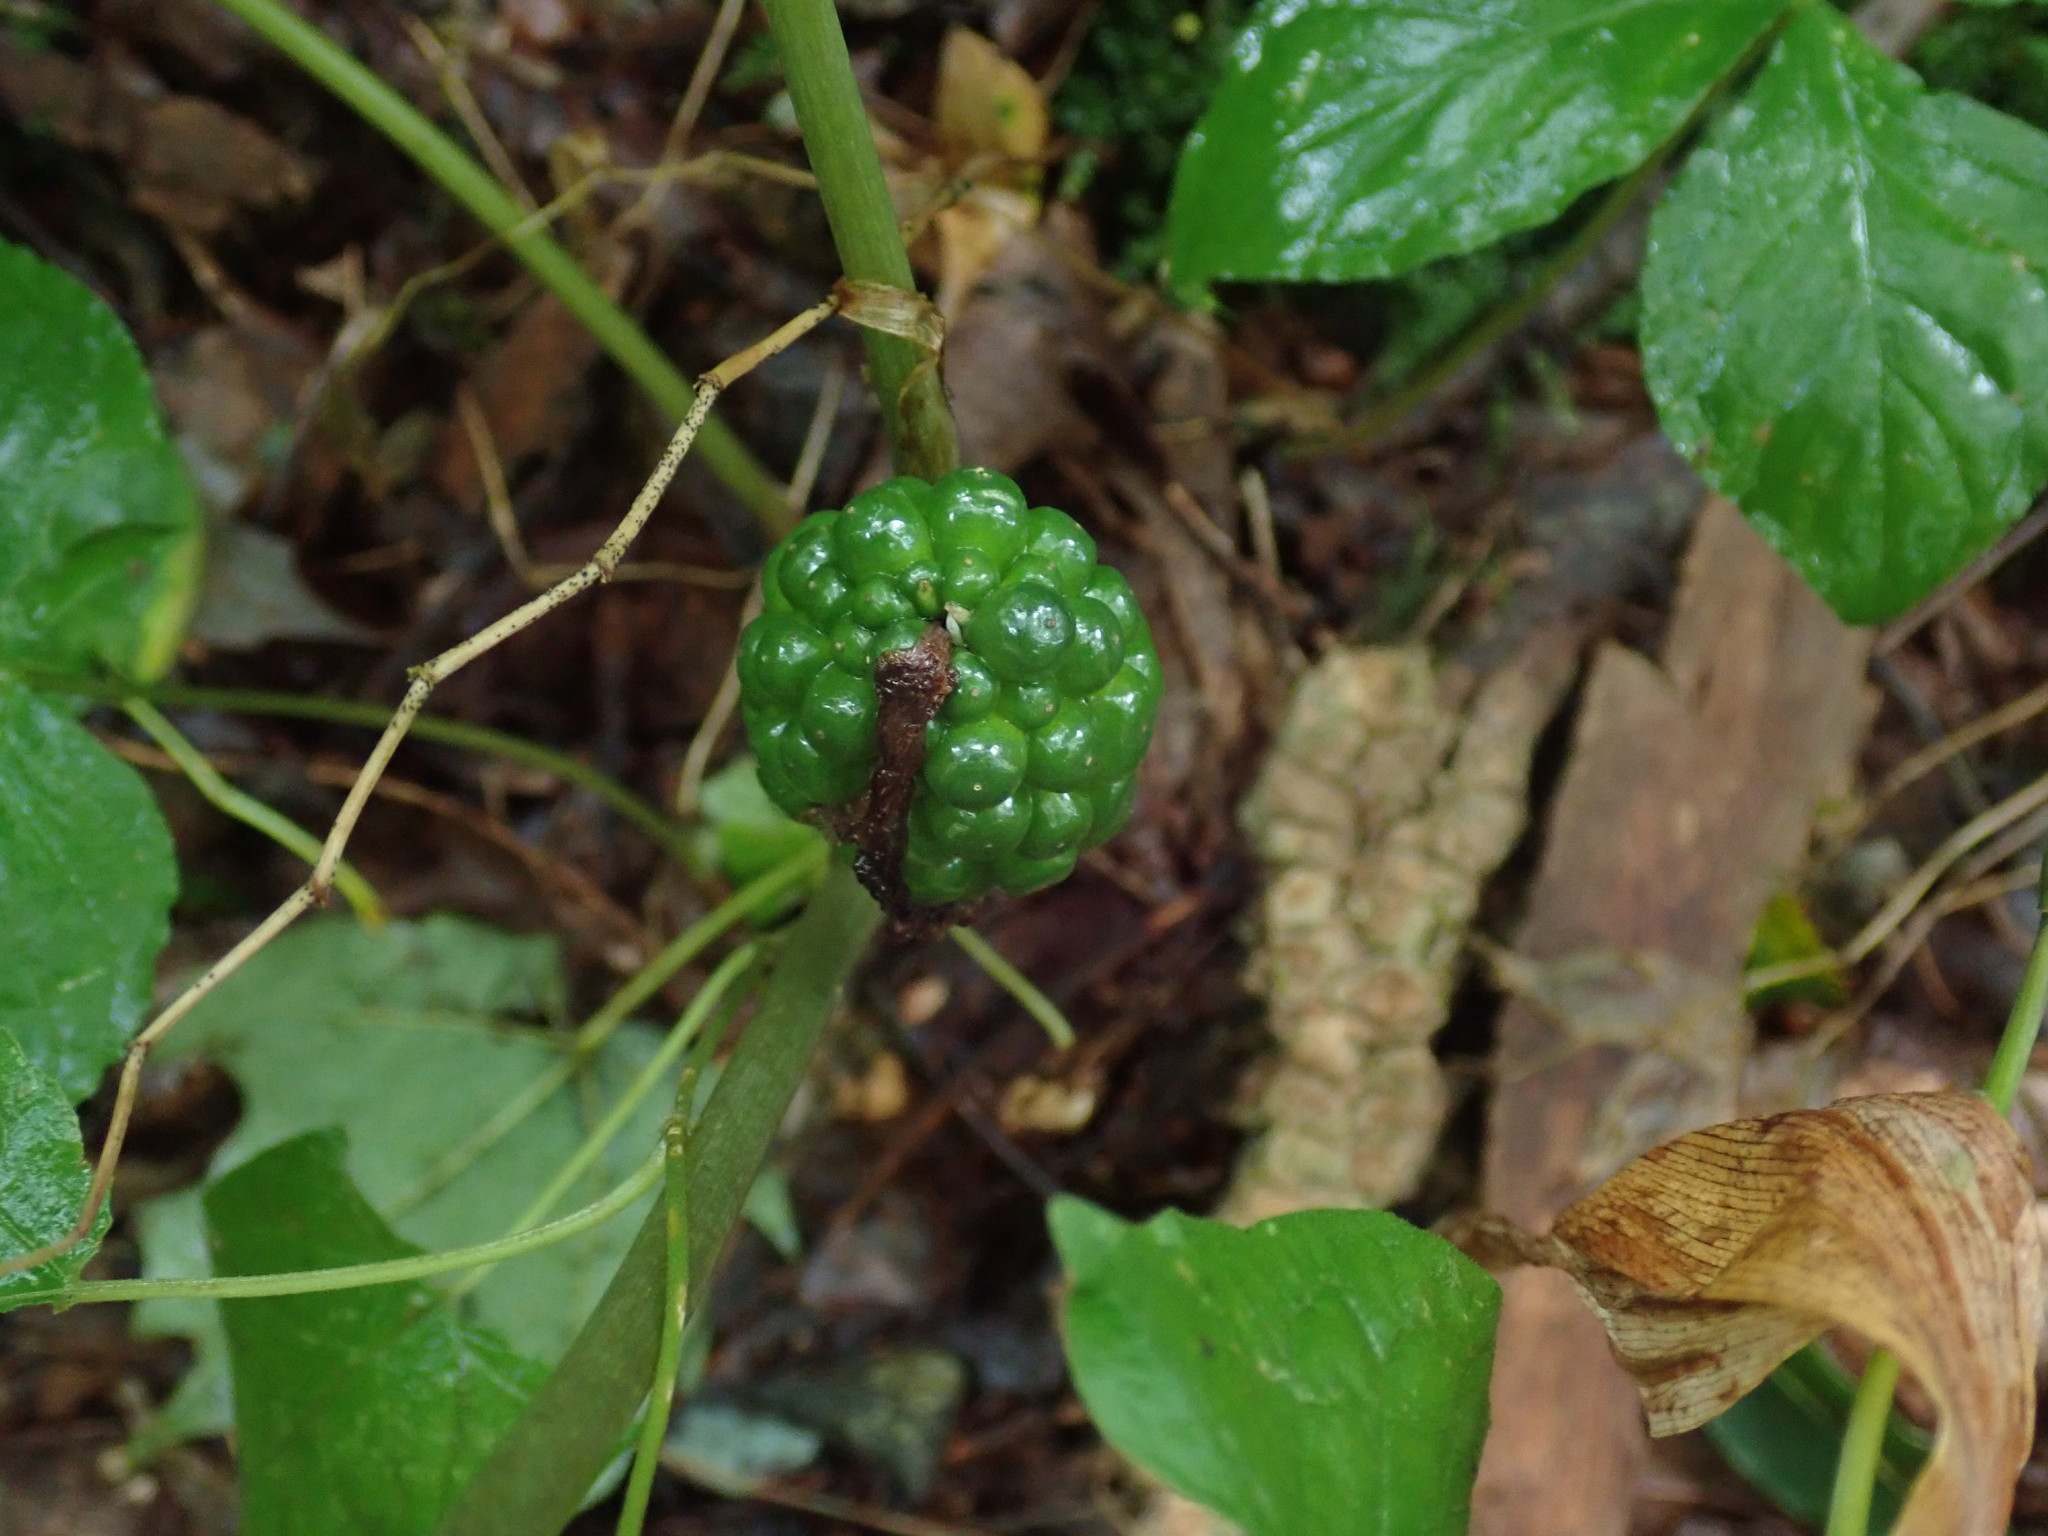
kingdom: Plantae
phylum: Tracheophyta
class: Liliopsida
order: Alismatales
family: Araceae
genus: Arisaema
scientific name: Arisaema triphyllum
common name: Jack-in-the-pulpit
